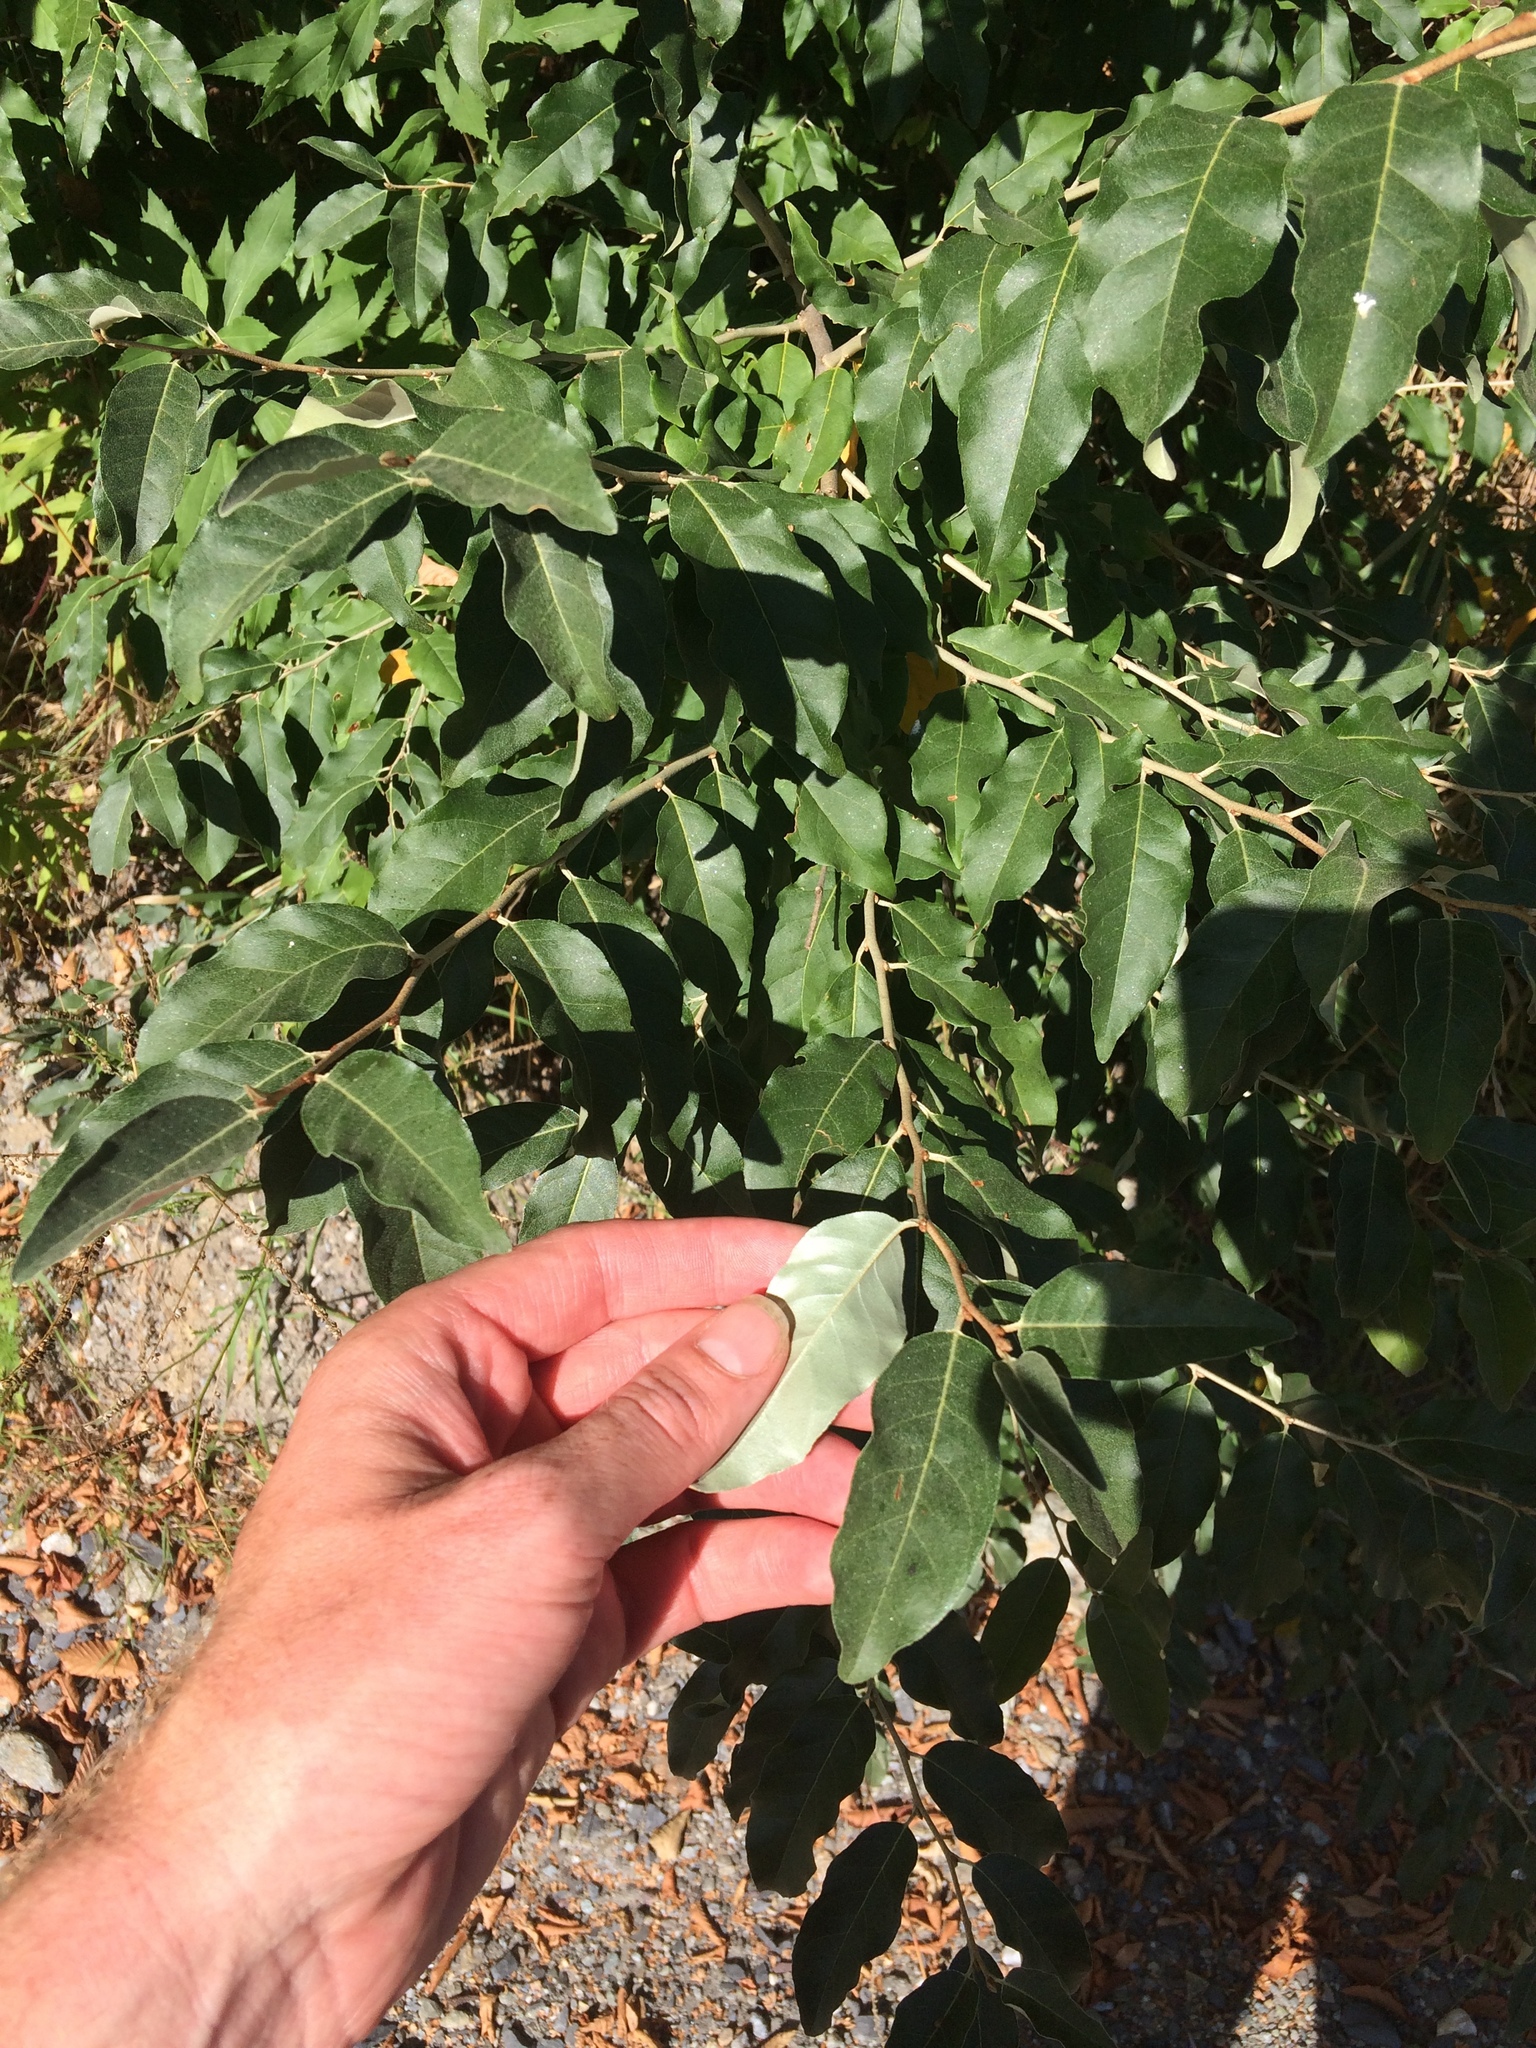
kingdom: Plantae
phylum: Tracheophyta
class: Magnoliopsida
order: Rosales
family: Elaeagnaceae
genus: Elaeagnus
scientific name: Elaeagnus umbellata
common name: Autumn olive
